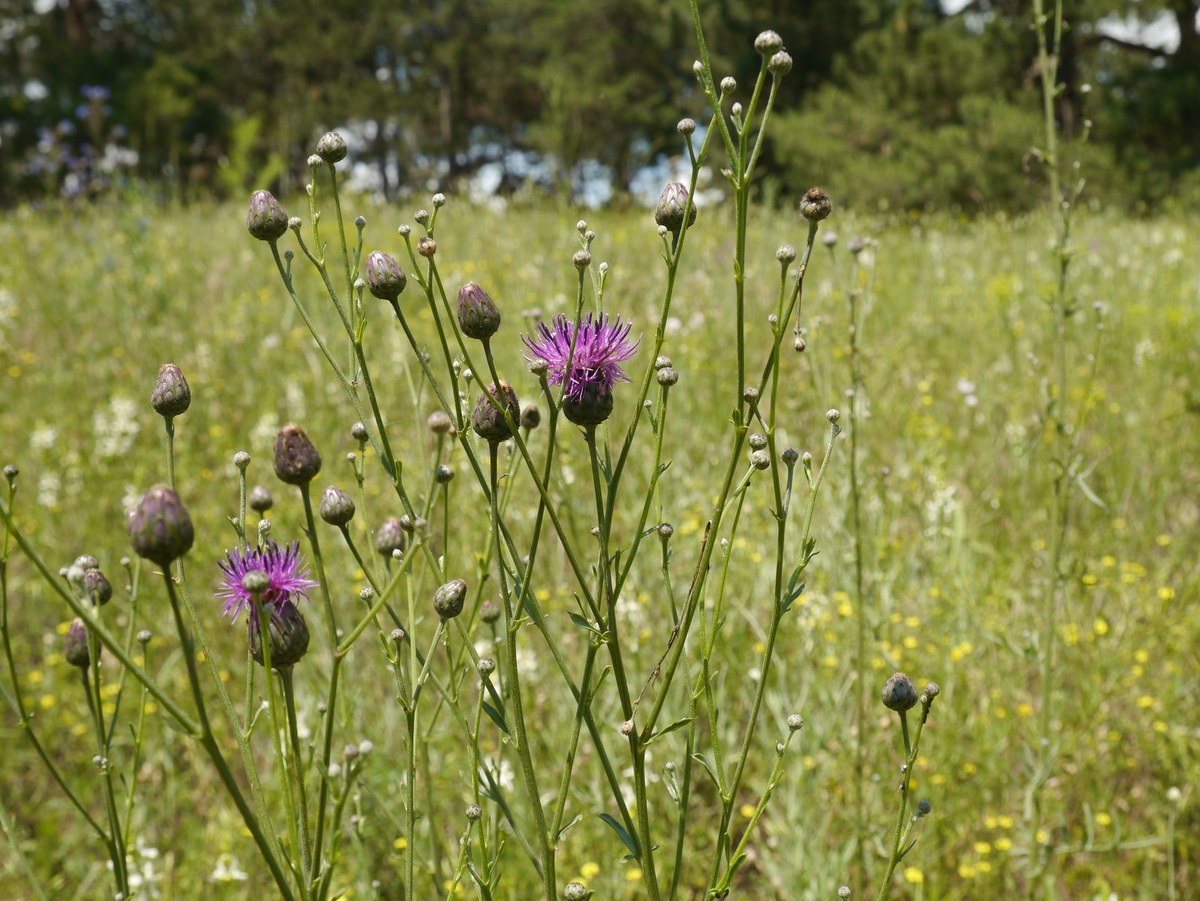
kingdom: Plantae
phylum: Tracheophyta
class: Magnoliopsida
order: Asterales
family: Asteraceae
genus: Centaurea
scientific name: Centaurea adpressa
